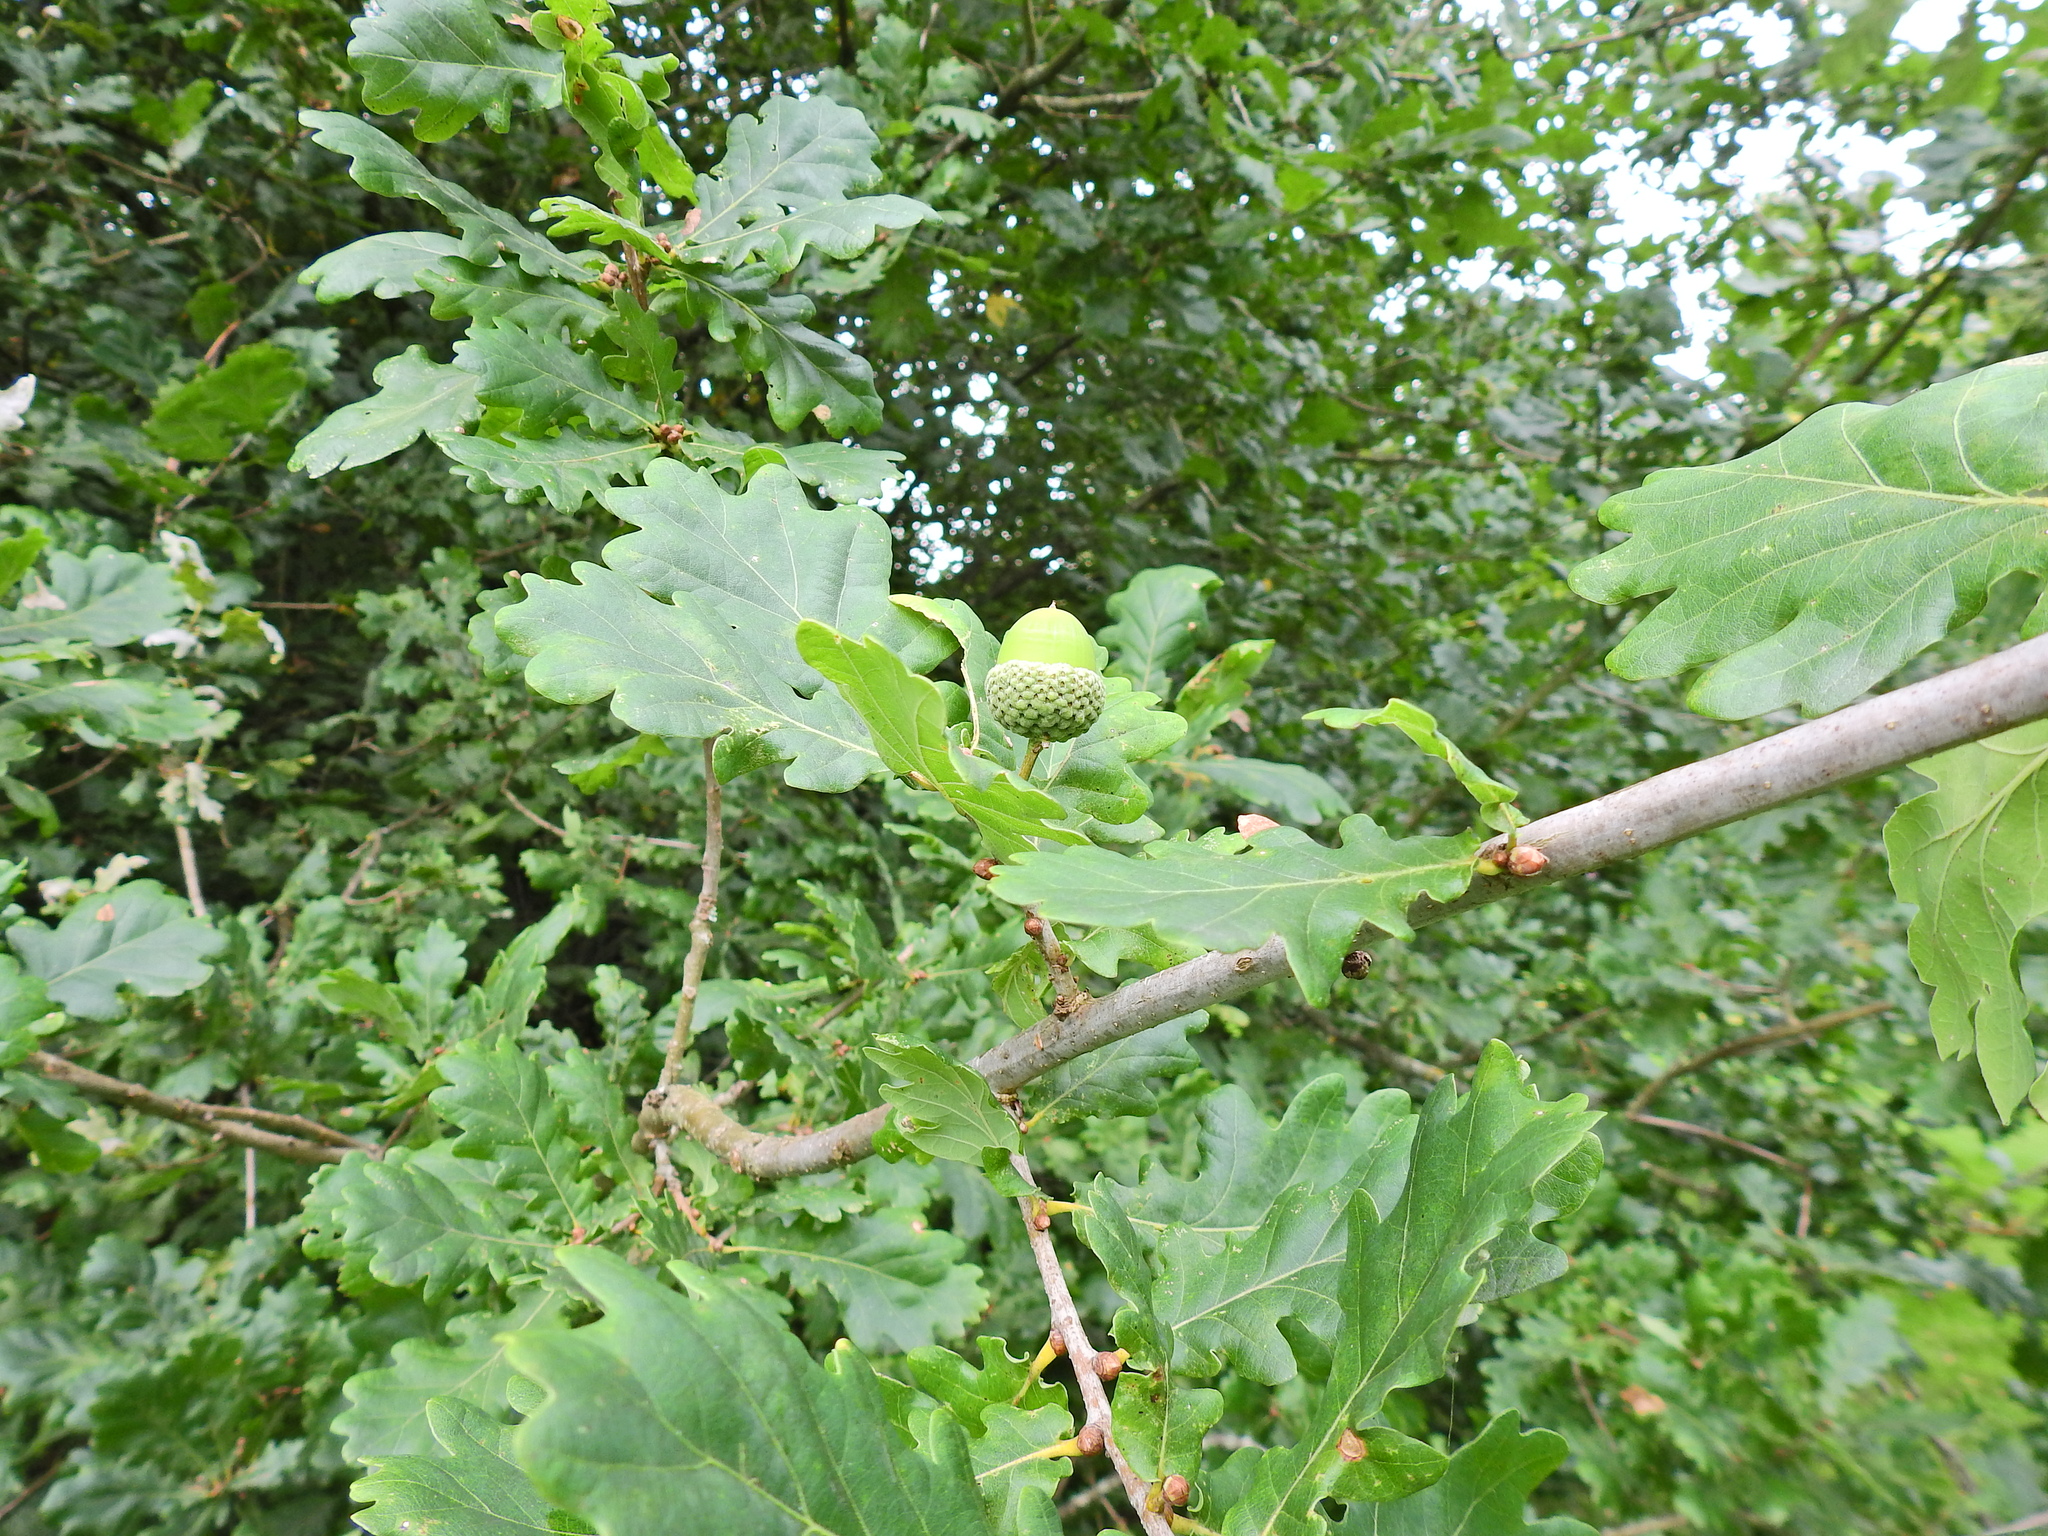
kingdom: Plantae
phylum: Tracheophyta
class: Magnoliopsida
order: Fagales
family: Fagaceae
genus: Quercus
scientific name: Quercus robur
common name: Pedunculate oak
